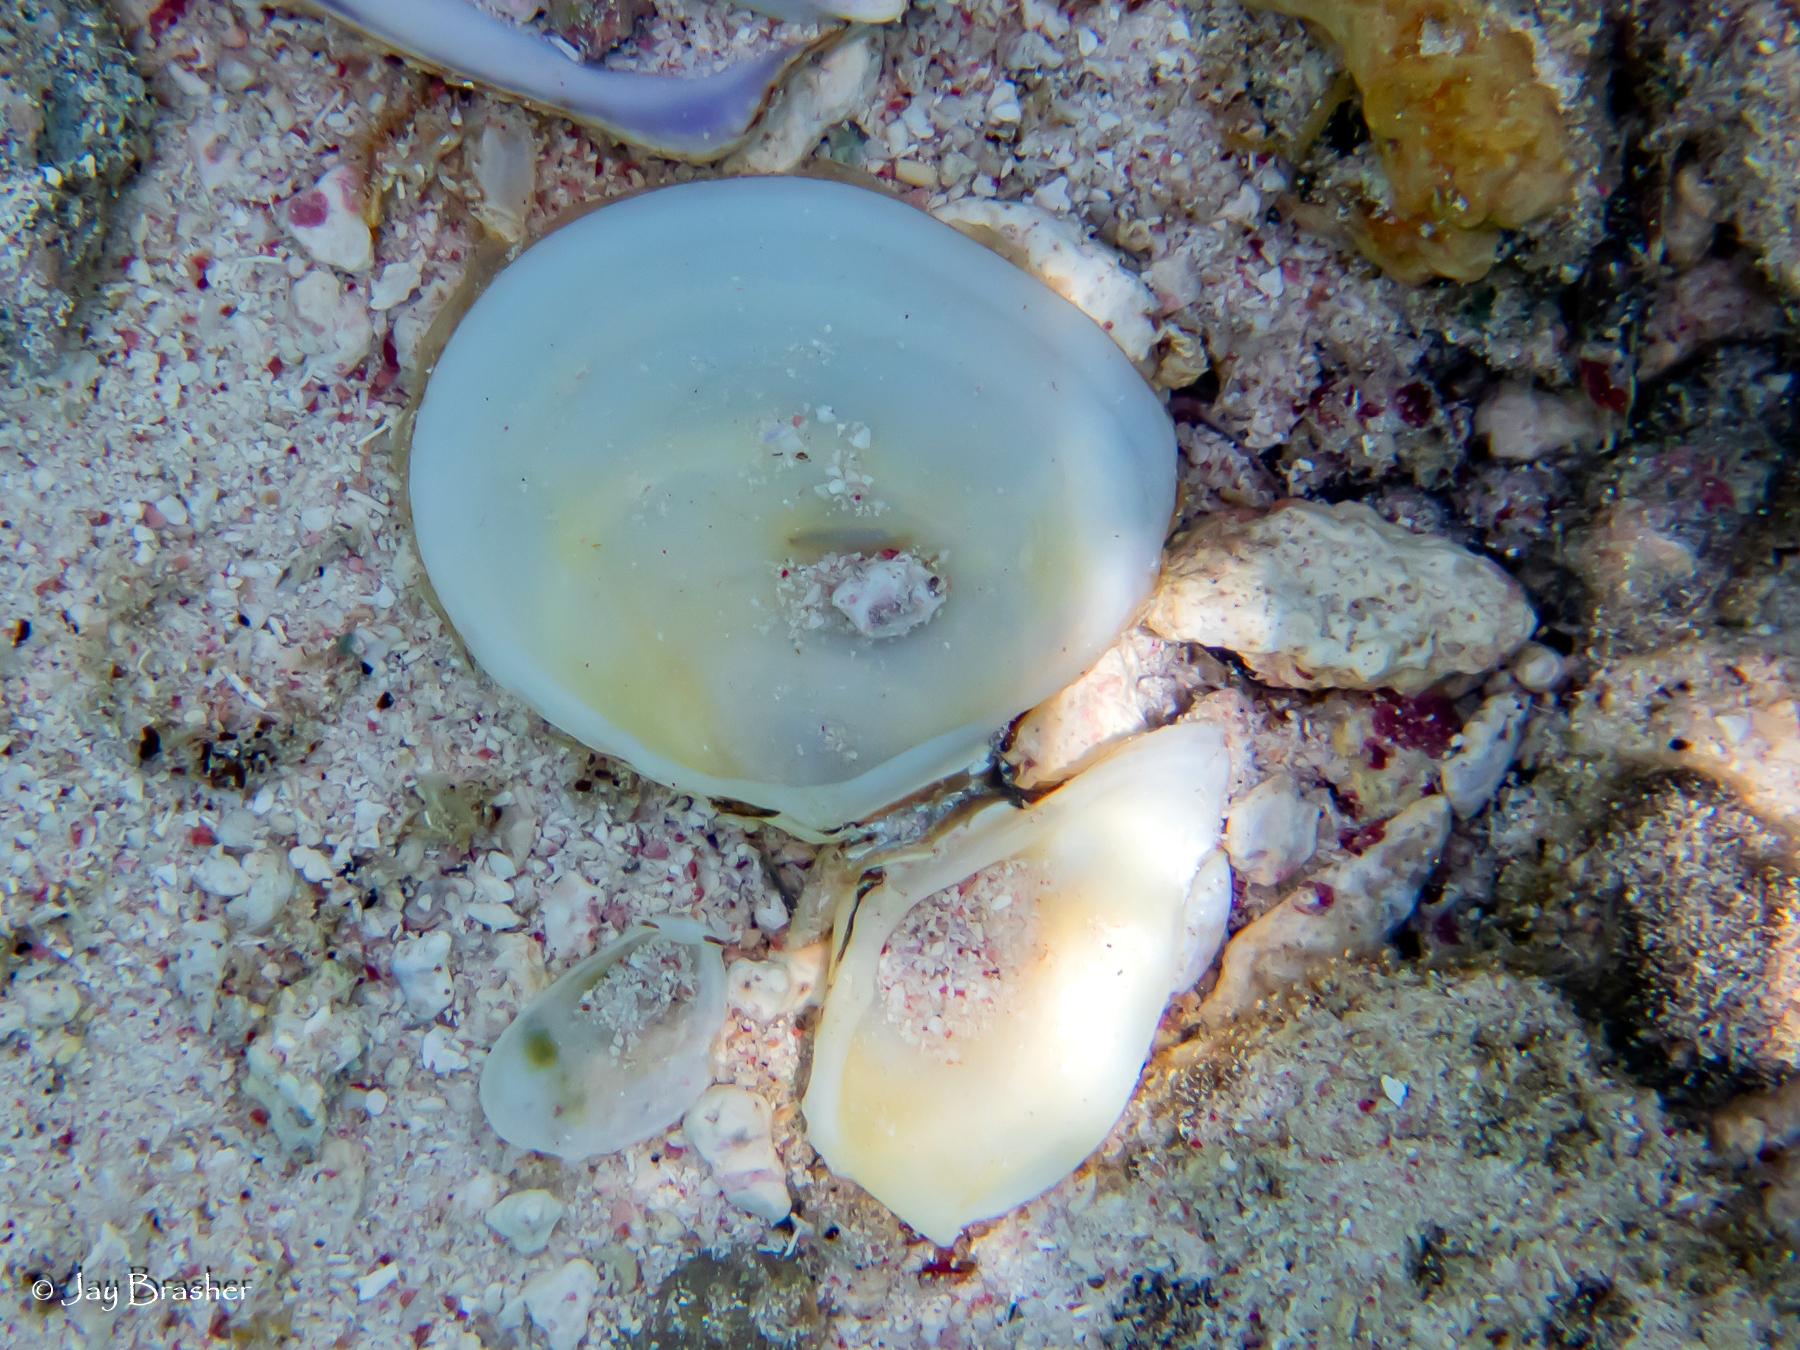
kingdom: Animalia
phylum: Mollusca
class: Bivalvia
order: Cardiida
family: Tellinidae
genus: Johnsonella
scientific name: Johnsonella fausta
